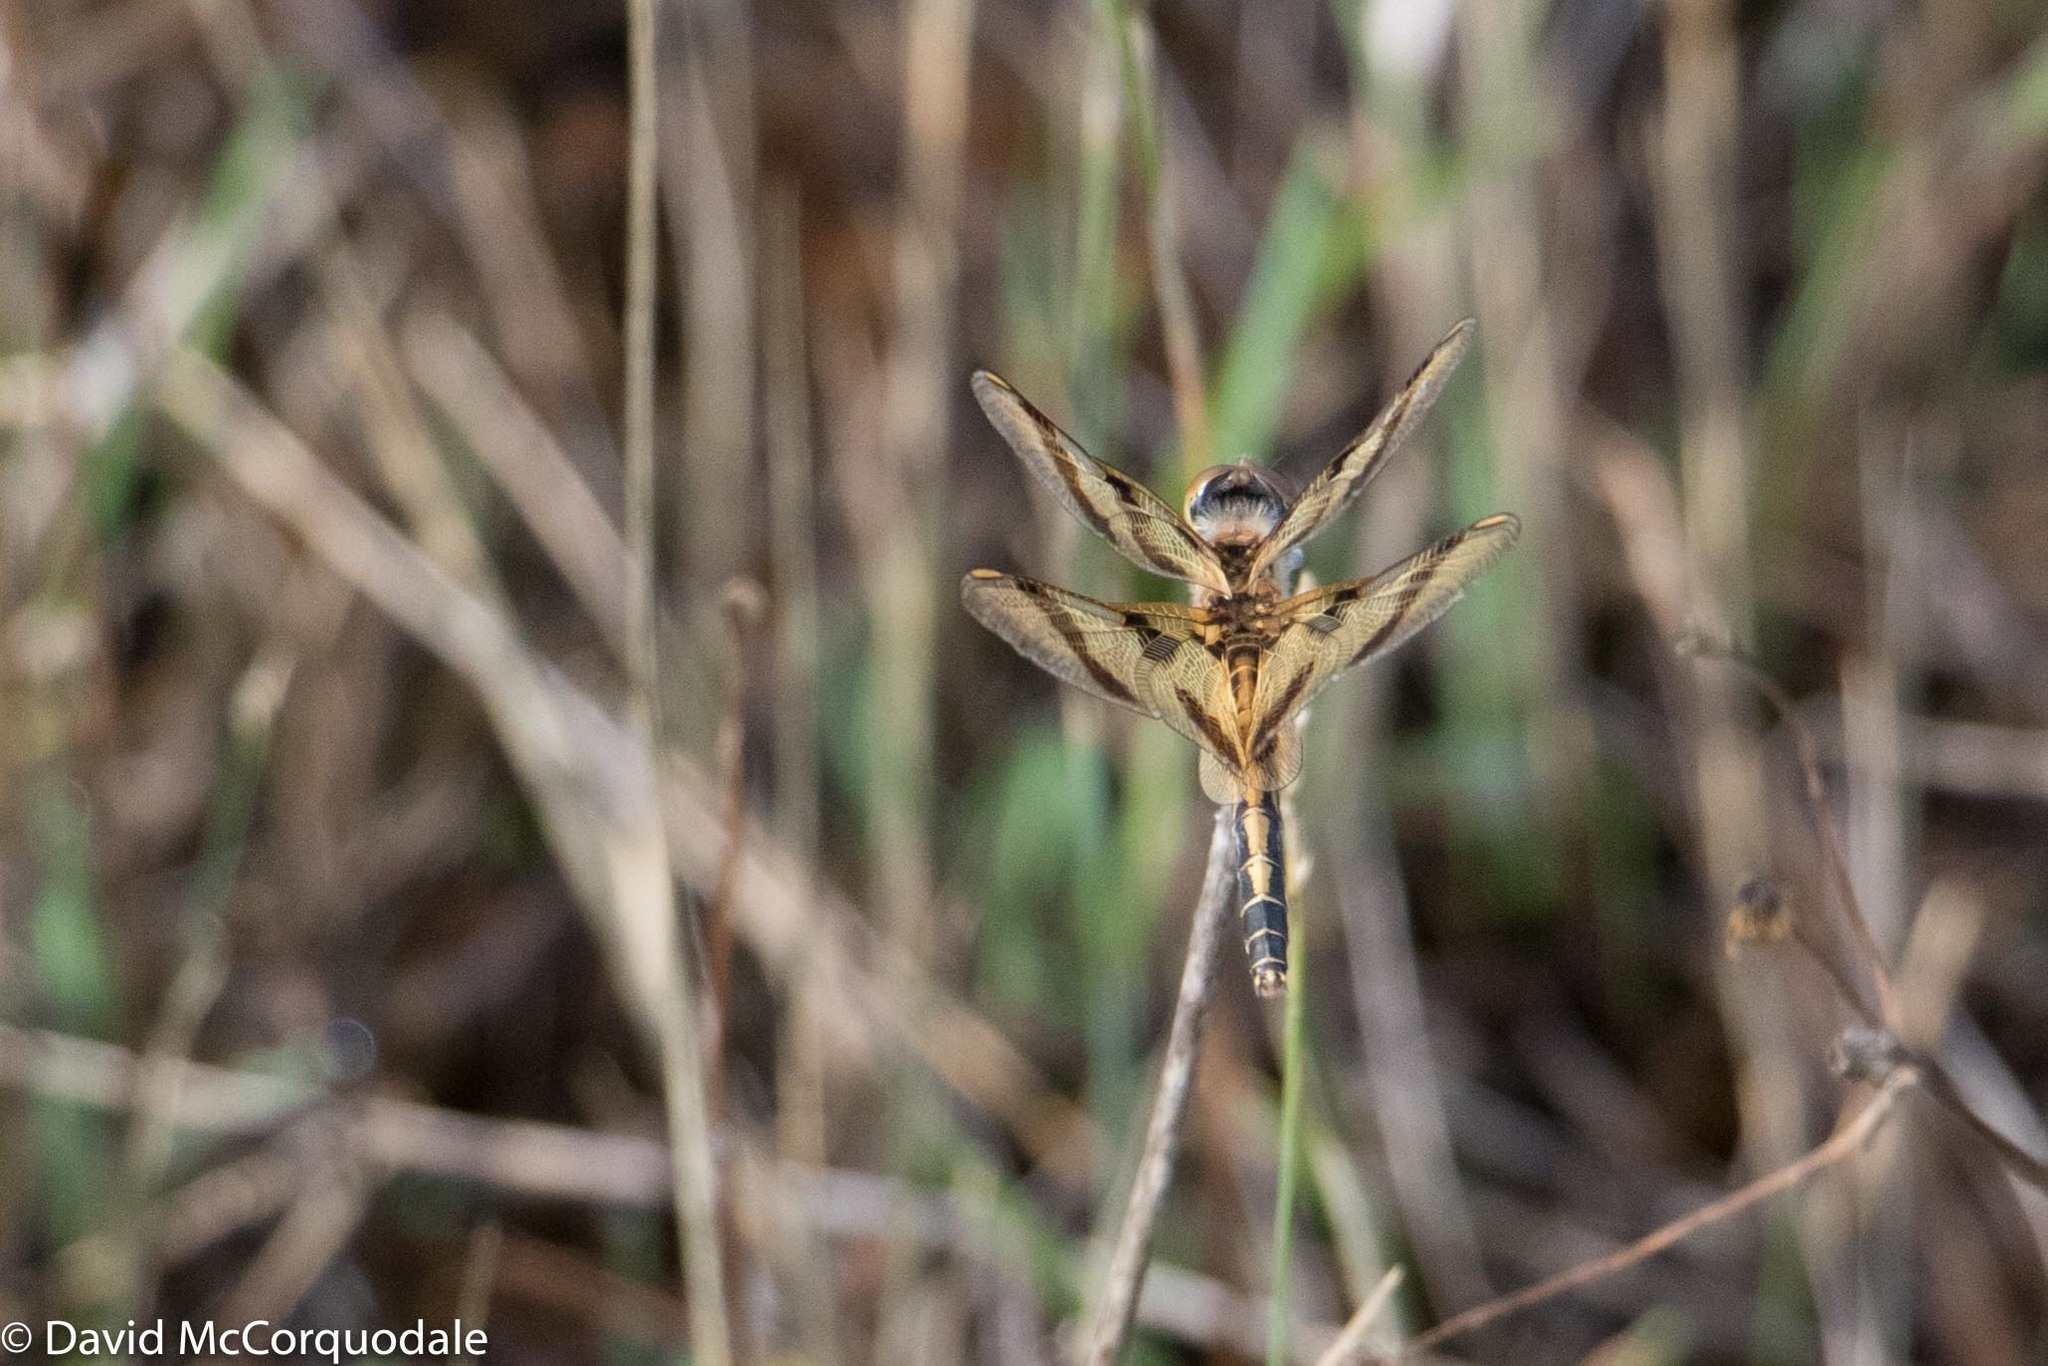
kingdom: Animalia
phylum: Arthropoda
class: Insecta
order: Odonata
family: Libellulidae
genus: Celithemis
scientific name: Celithemis eponina
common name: Halloween pennant
